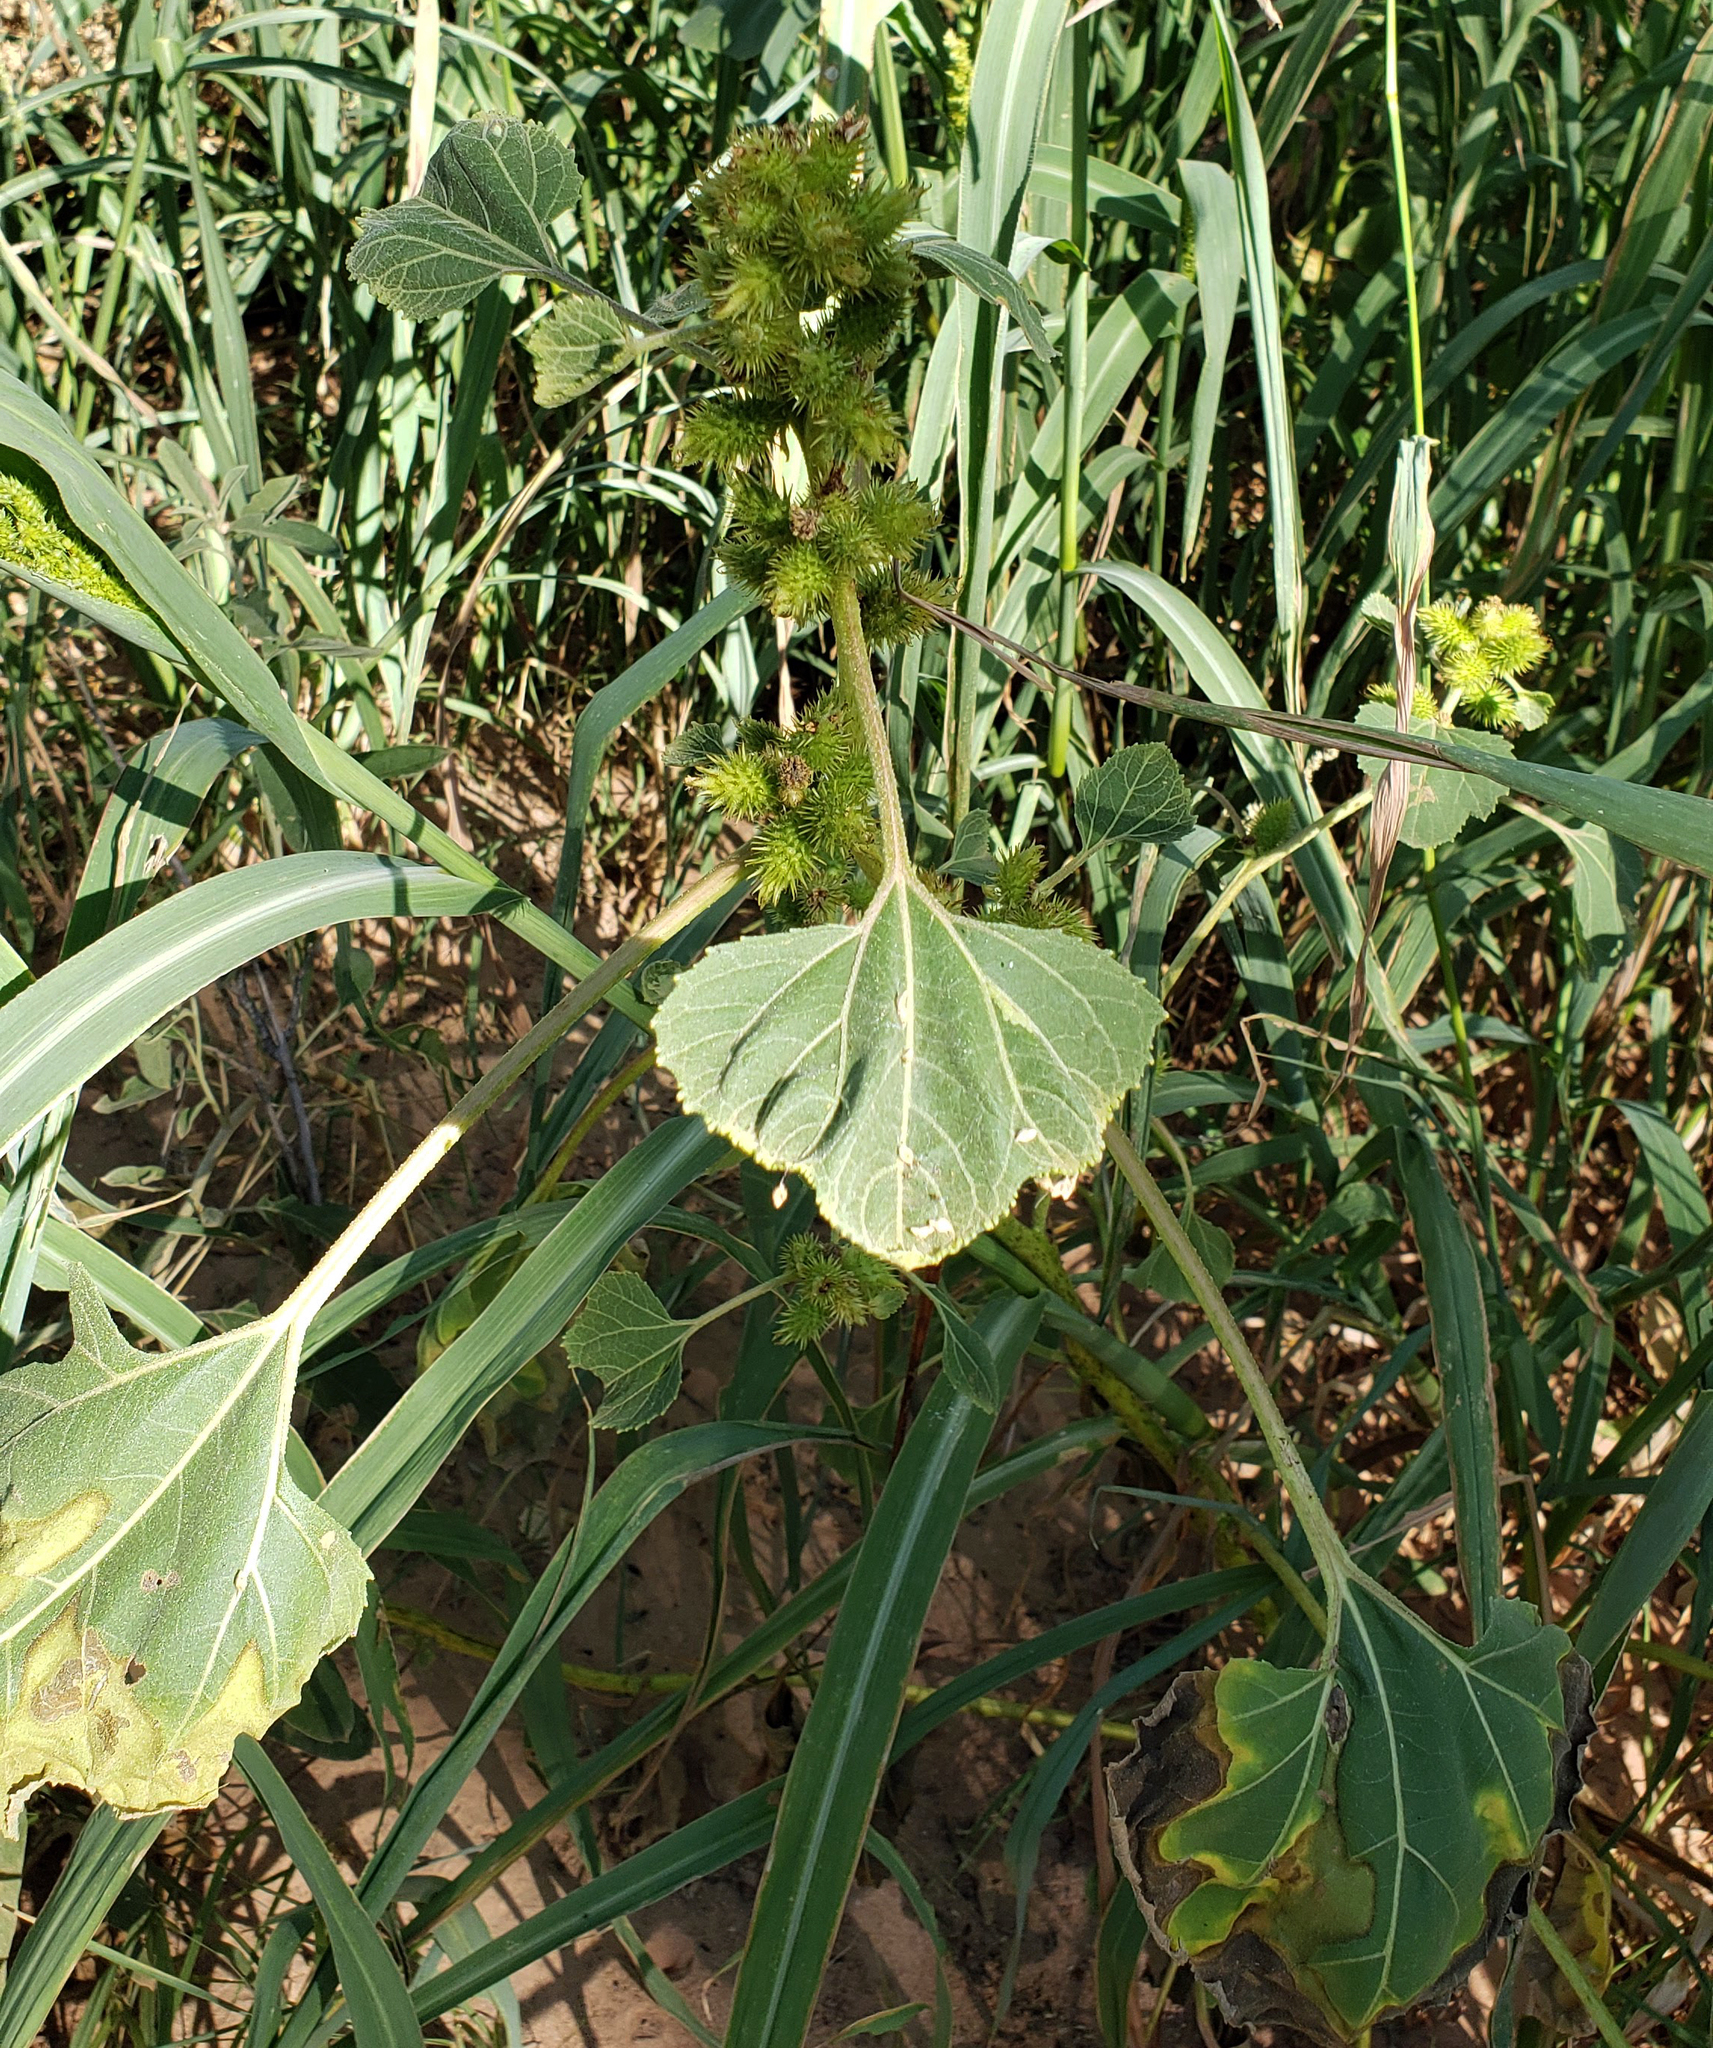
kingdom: Plantae
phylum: Tracheophyta
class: Magnoliopsida
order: Asterales
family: Asteraceae
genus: Xanthium
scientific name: Xanthium strumarium
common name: Rough cocklebur
